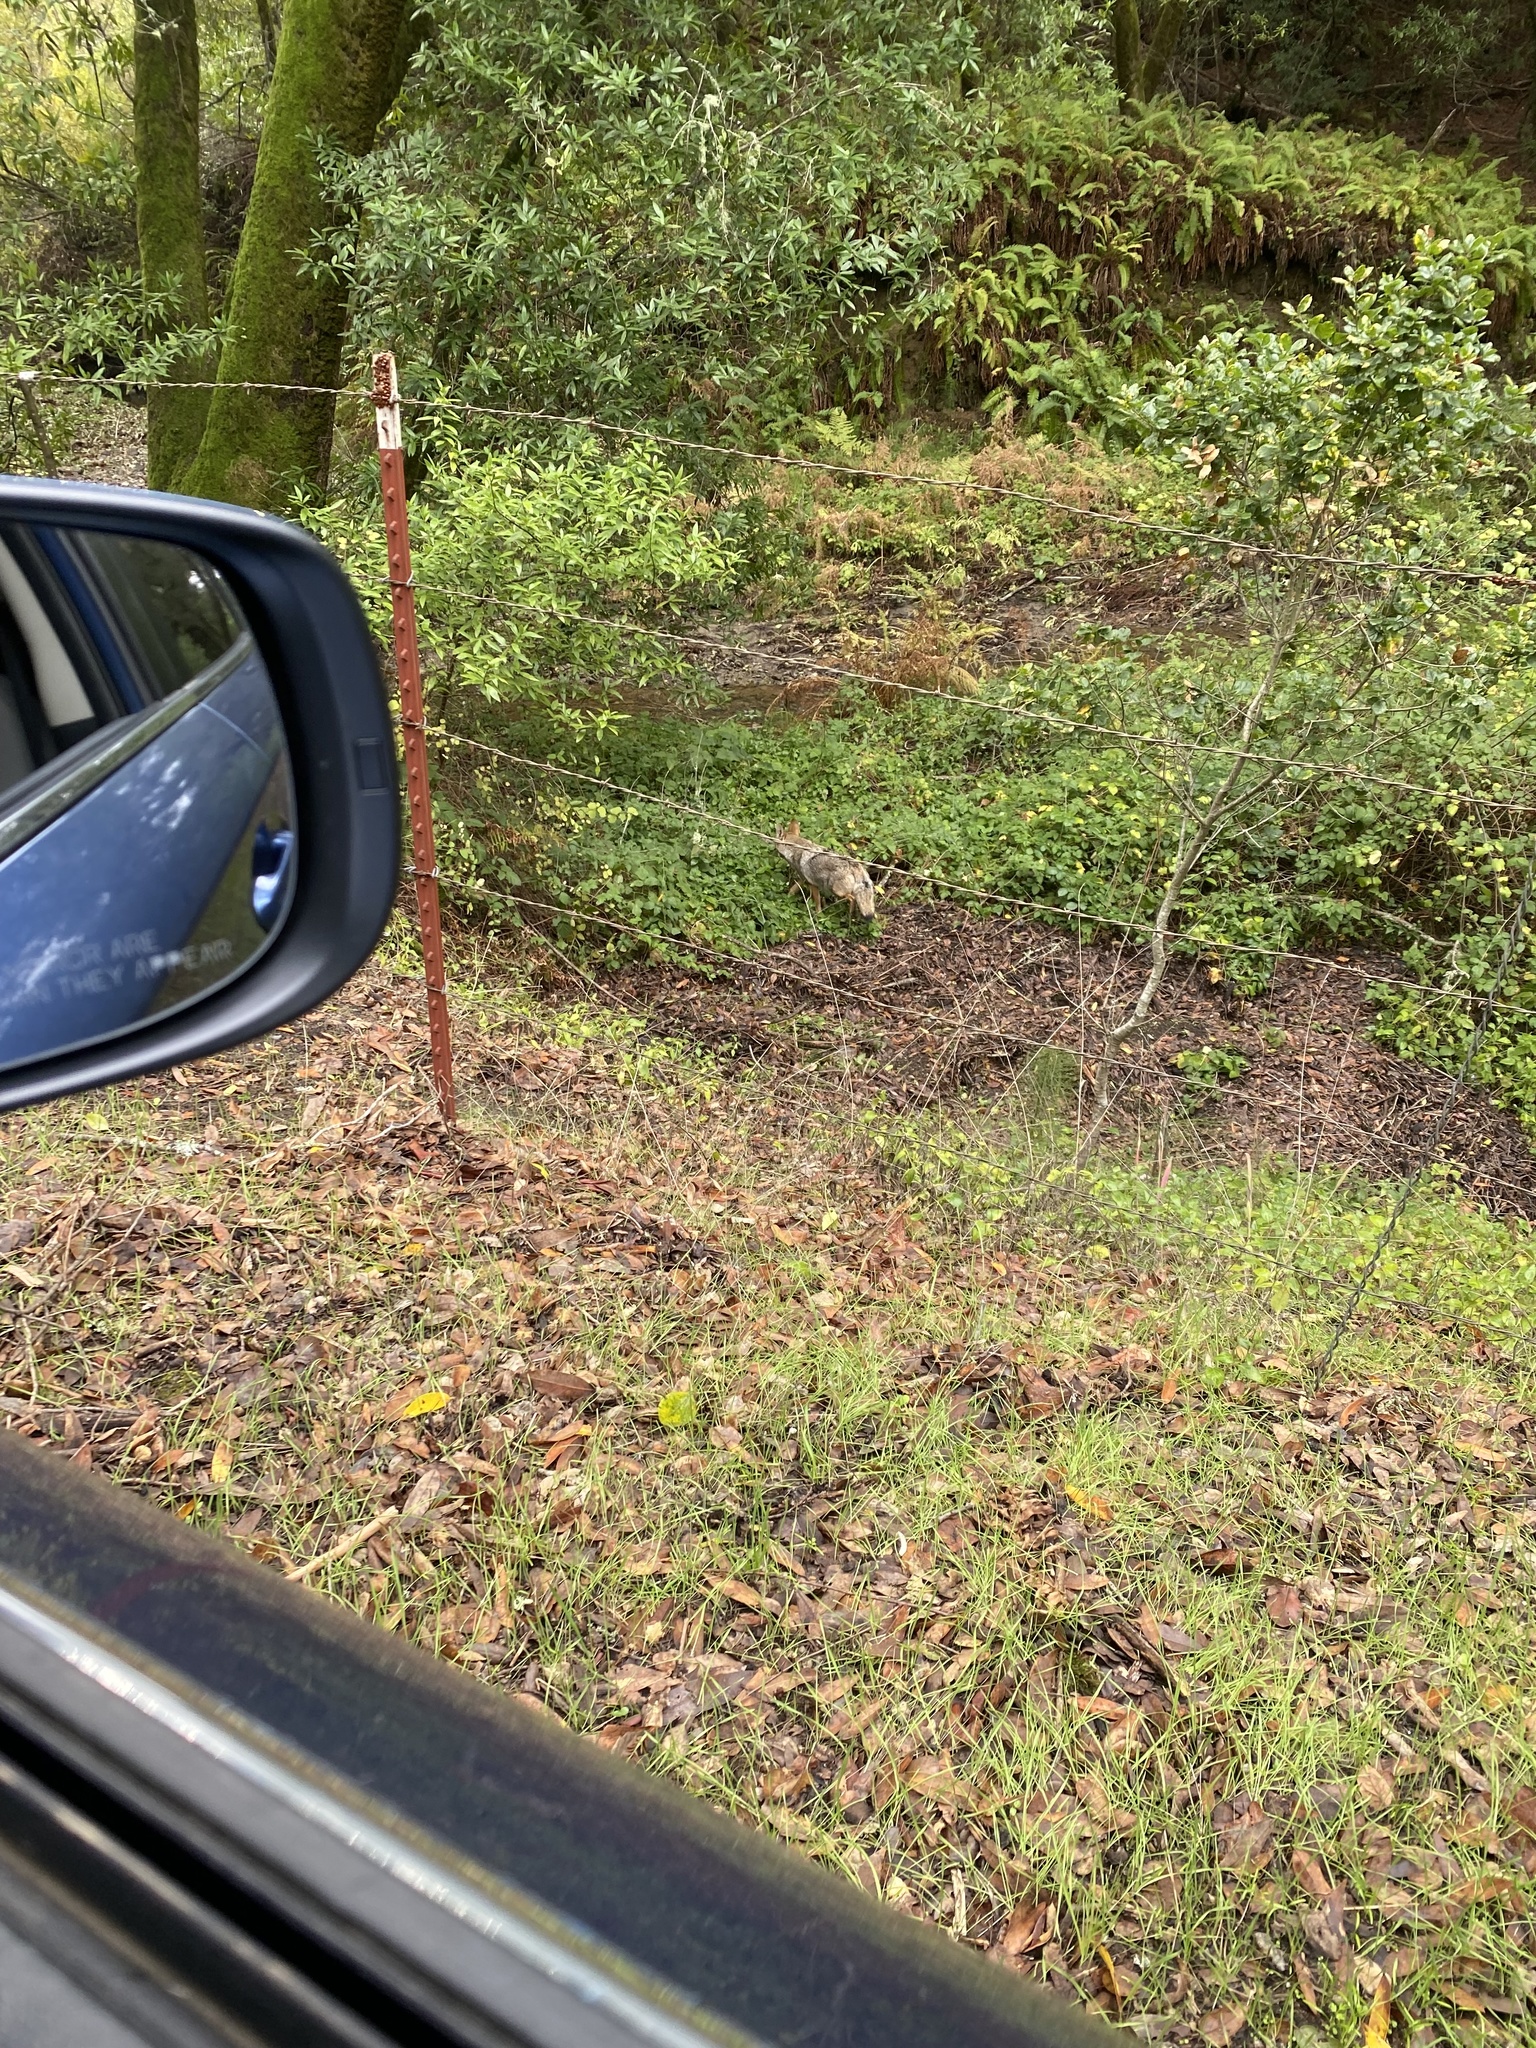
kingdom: Animalia
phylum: Chordata
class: Mammalia
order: Carnivora
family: Canidae
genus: Canis
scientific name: Canis latrans
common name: Coyote
